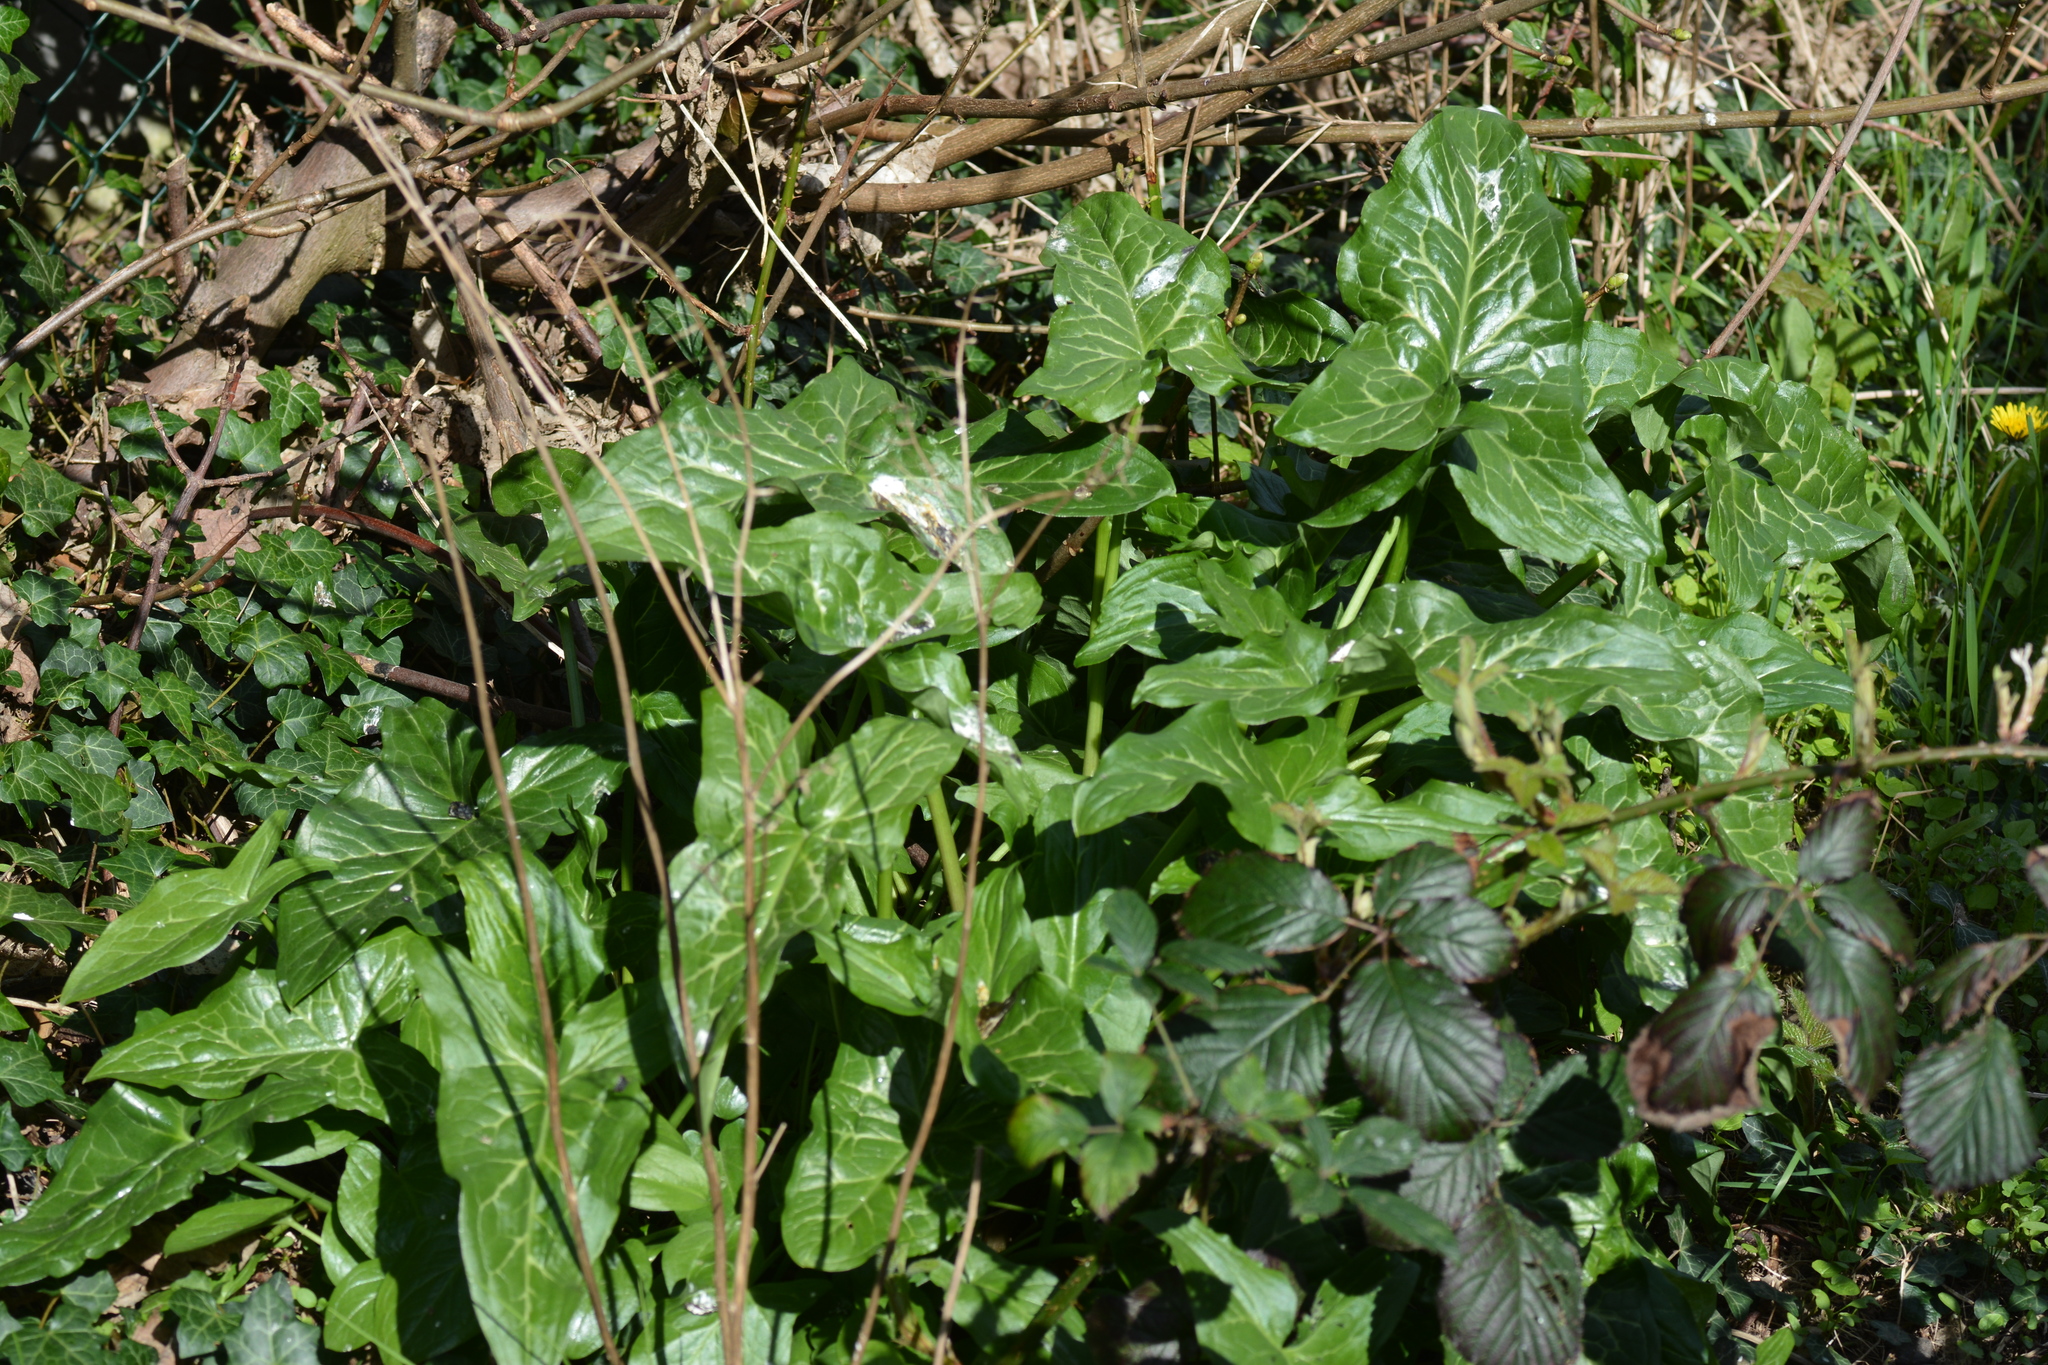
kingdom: Plantae
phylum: Tracheophyta
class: Liliopsida
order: Alismatales
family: Araceae
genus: Arum
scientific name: Arum italicum
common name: Italian lords-and-ladies
